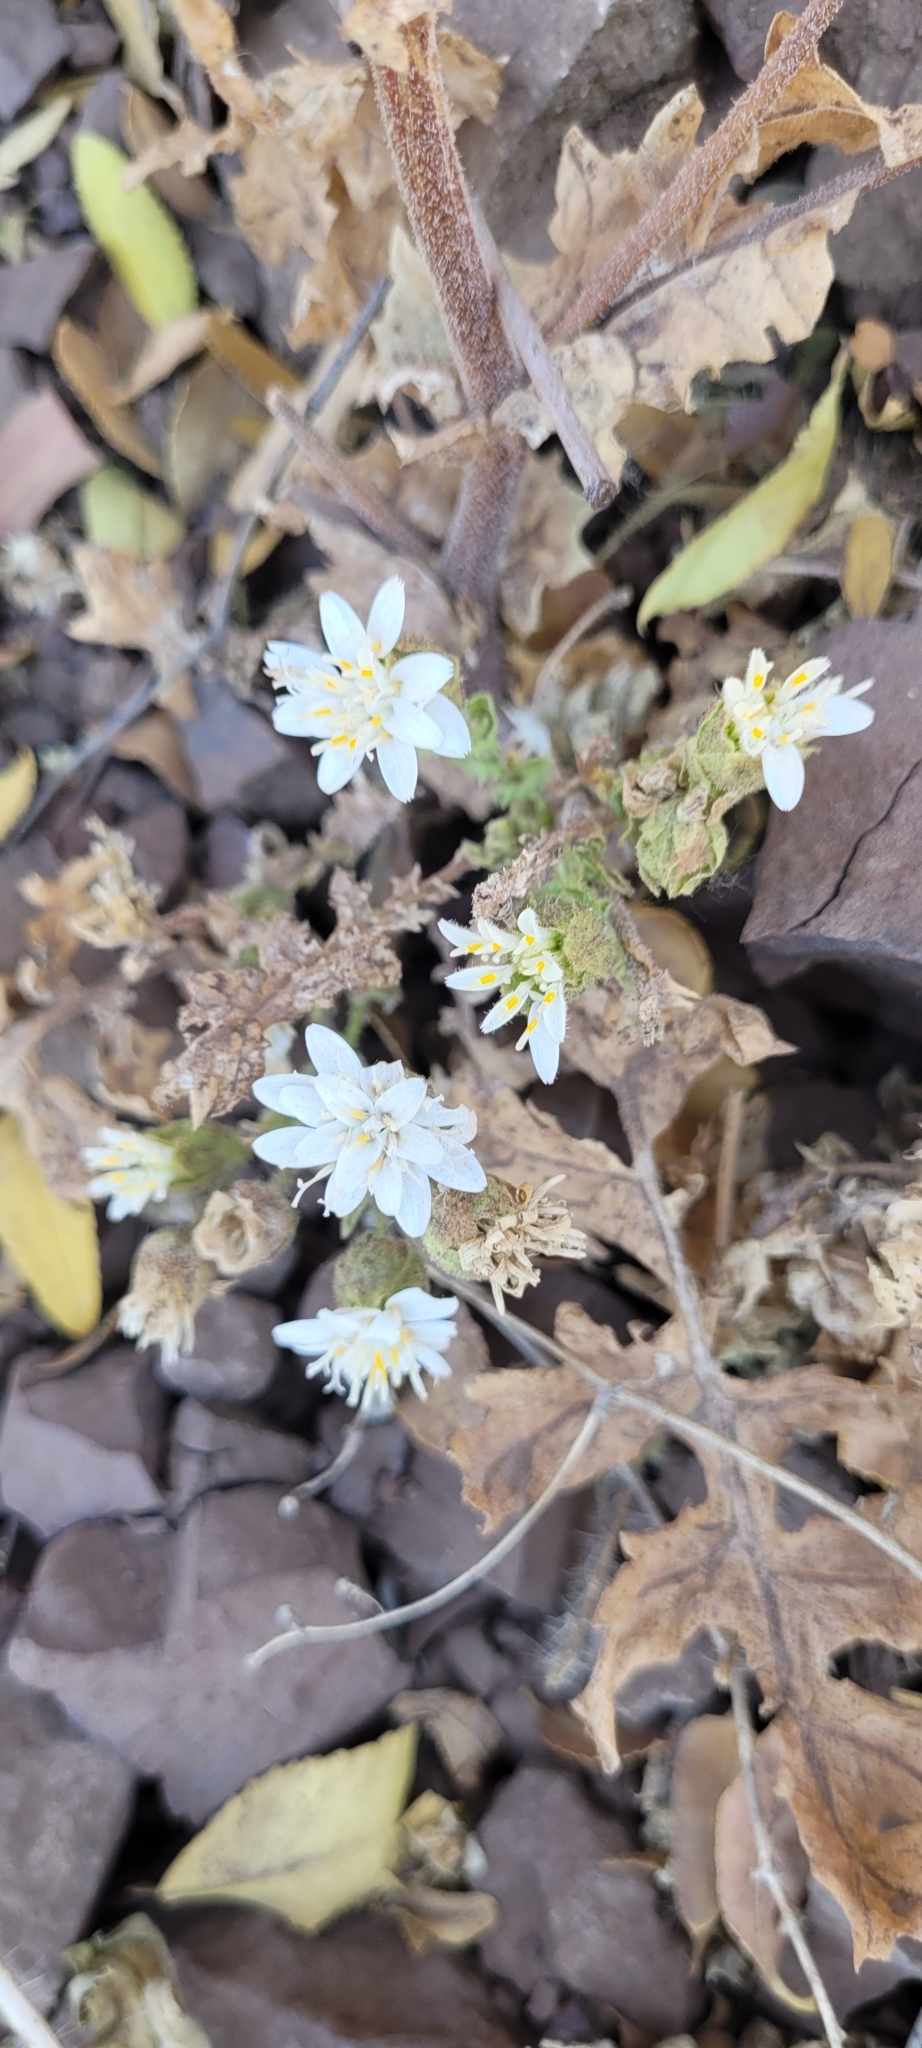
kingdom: Plantae
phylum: Tracheophyta
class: Magnoliopsida
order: Asterales
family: Asteraceae
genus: Moscharia
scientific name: Moscharia pinnatifida
